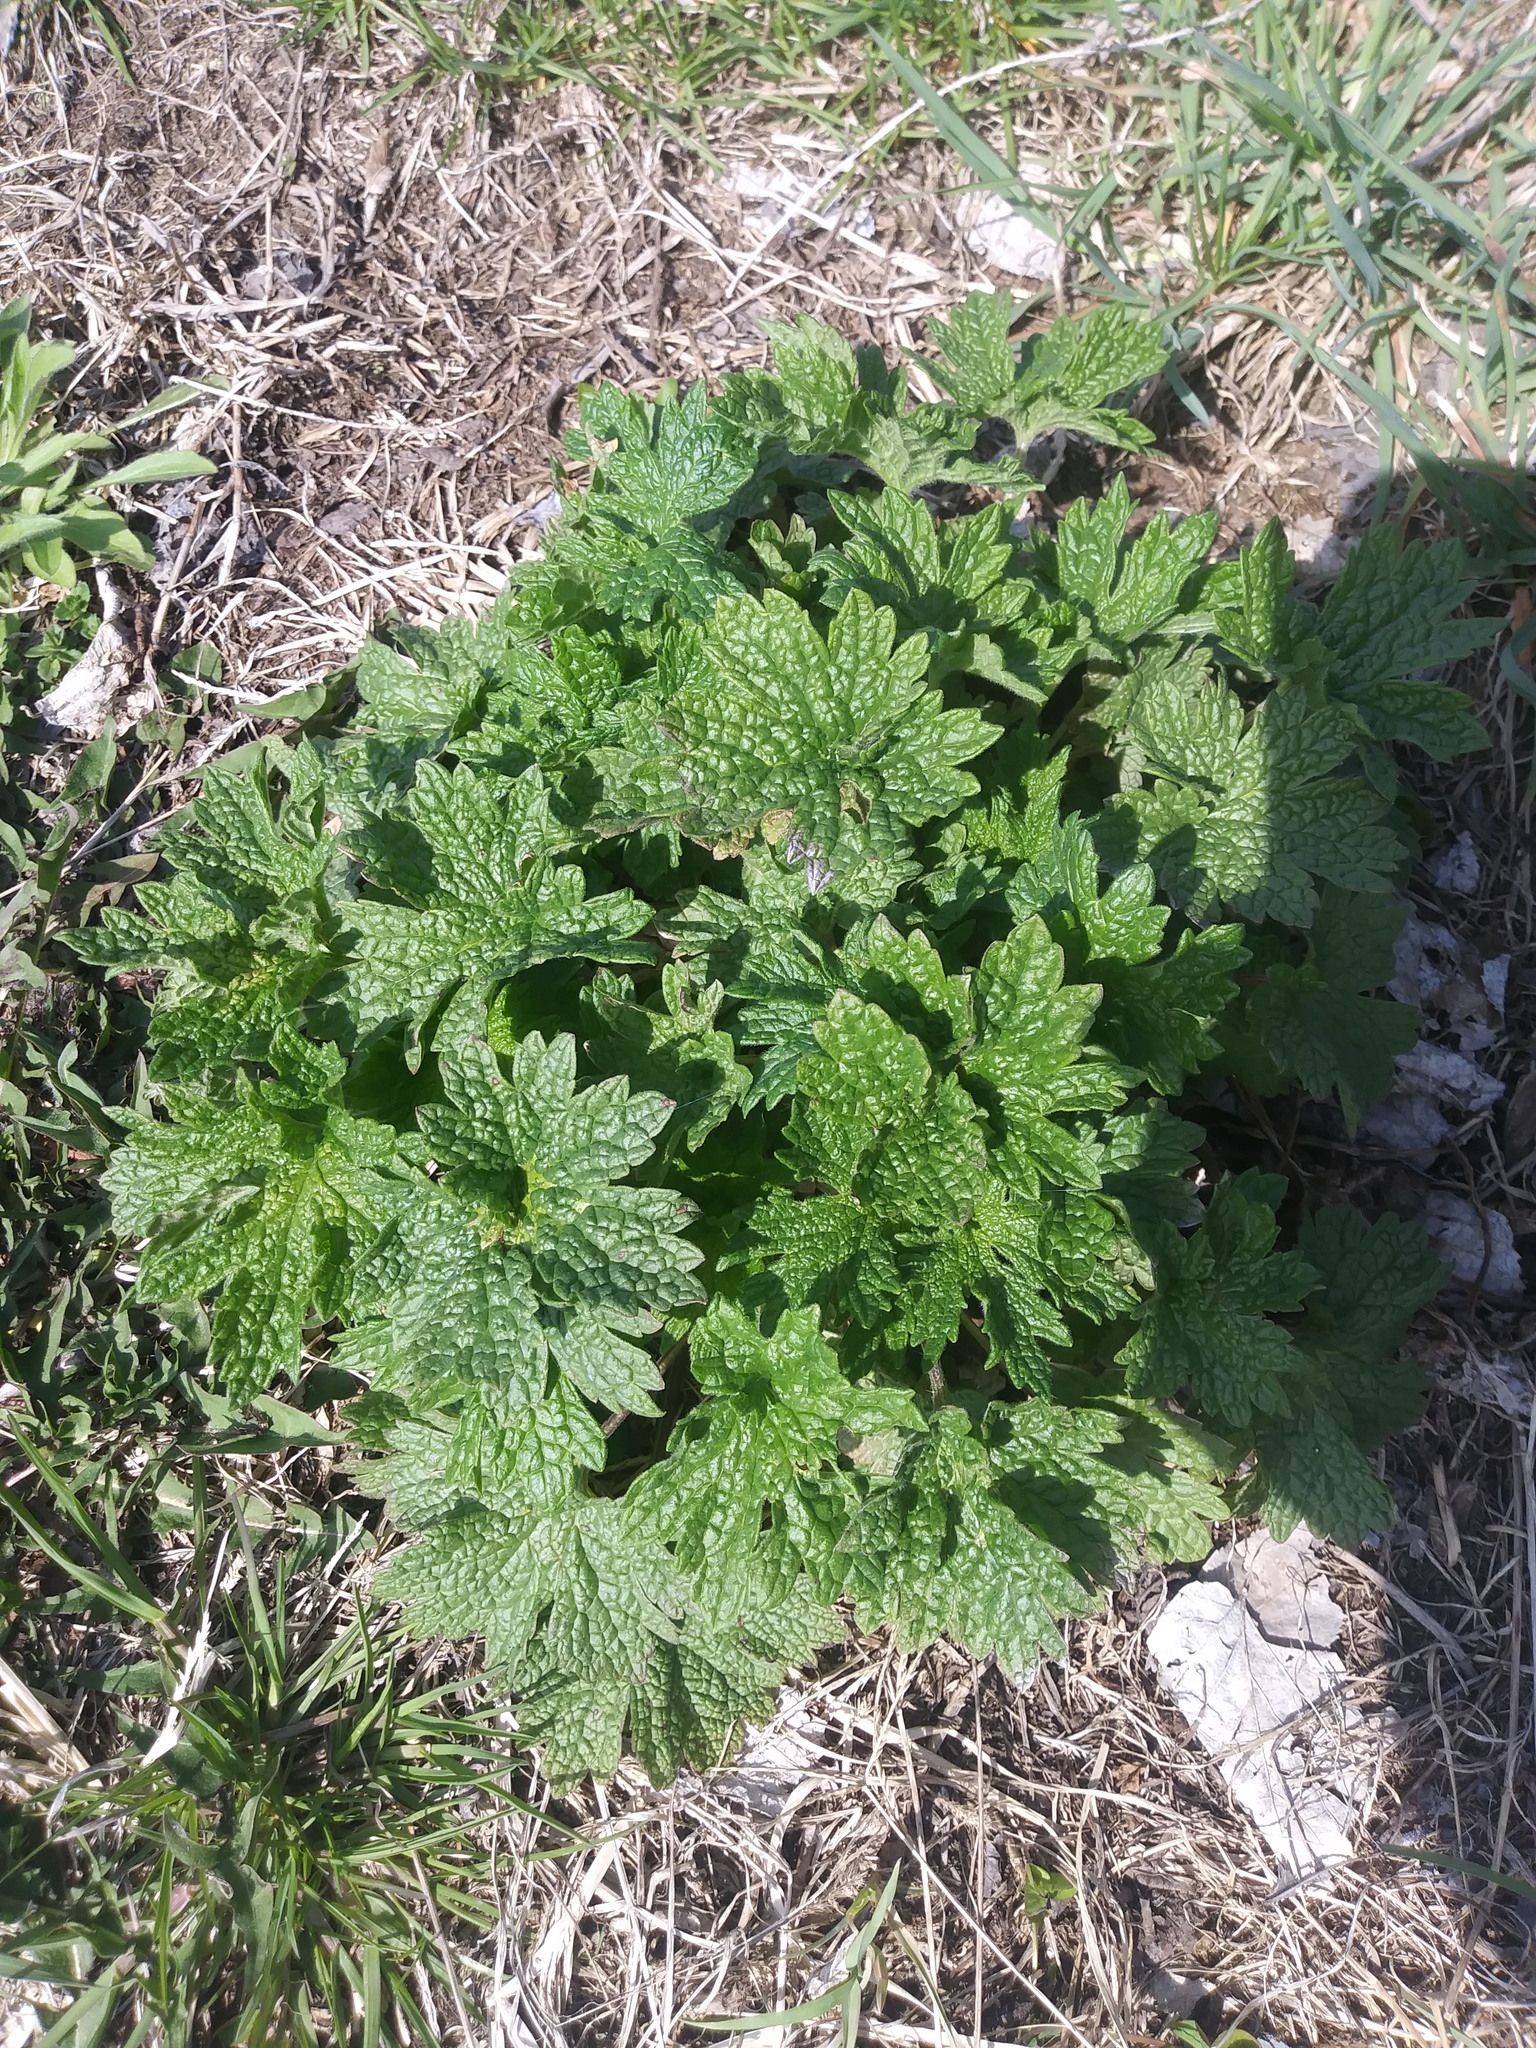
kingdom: Plantae
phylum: Tracheophyta
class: Magnoliopsida
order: Lamiales
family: Lamiaceae
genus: Leonurus
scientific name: Leonurus cardiaca
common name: Motherwort
